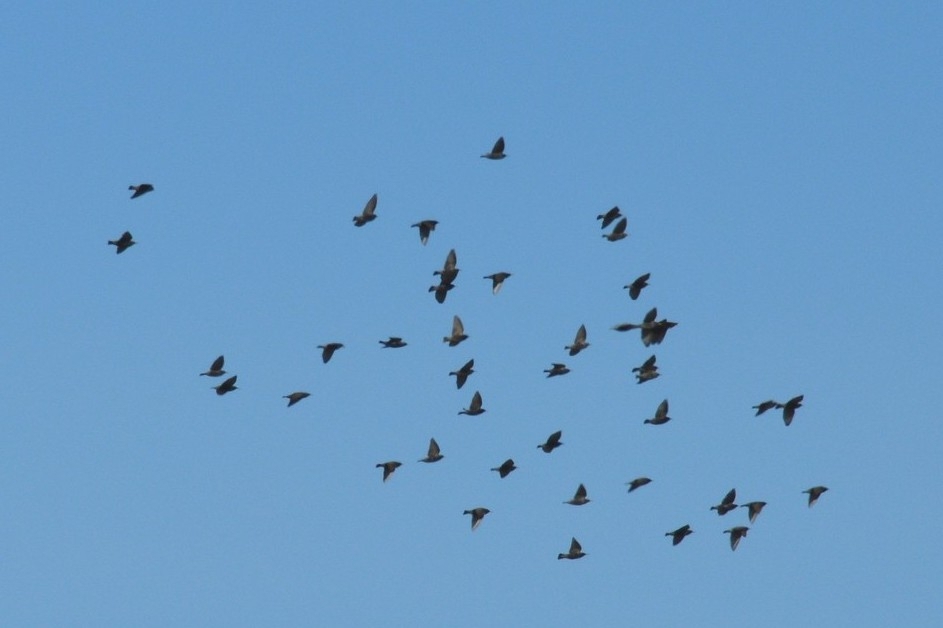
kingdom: Animalia
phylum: Chordata
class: Aves
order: Passeriformes
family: Sturnidae
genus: Sturnus
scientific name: Sturnus vulgaris
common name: Common starling
